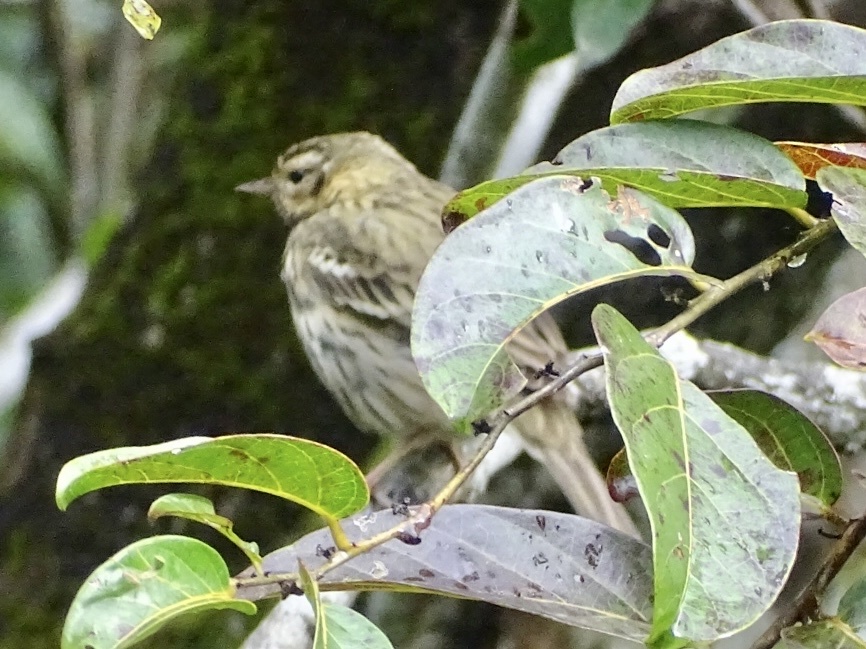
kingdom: Animalia
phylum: Chordata
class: Aves
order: Passeriformes
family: Motacillidae
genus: Anthus
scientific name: Anthus hodgsoni
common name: Olive-backed pipit
